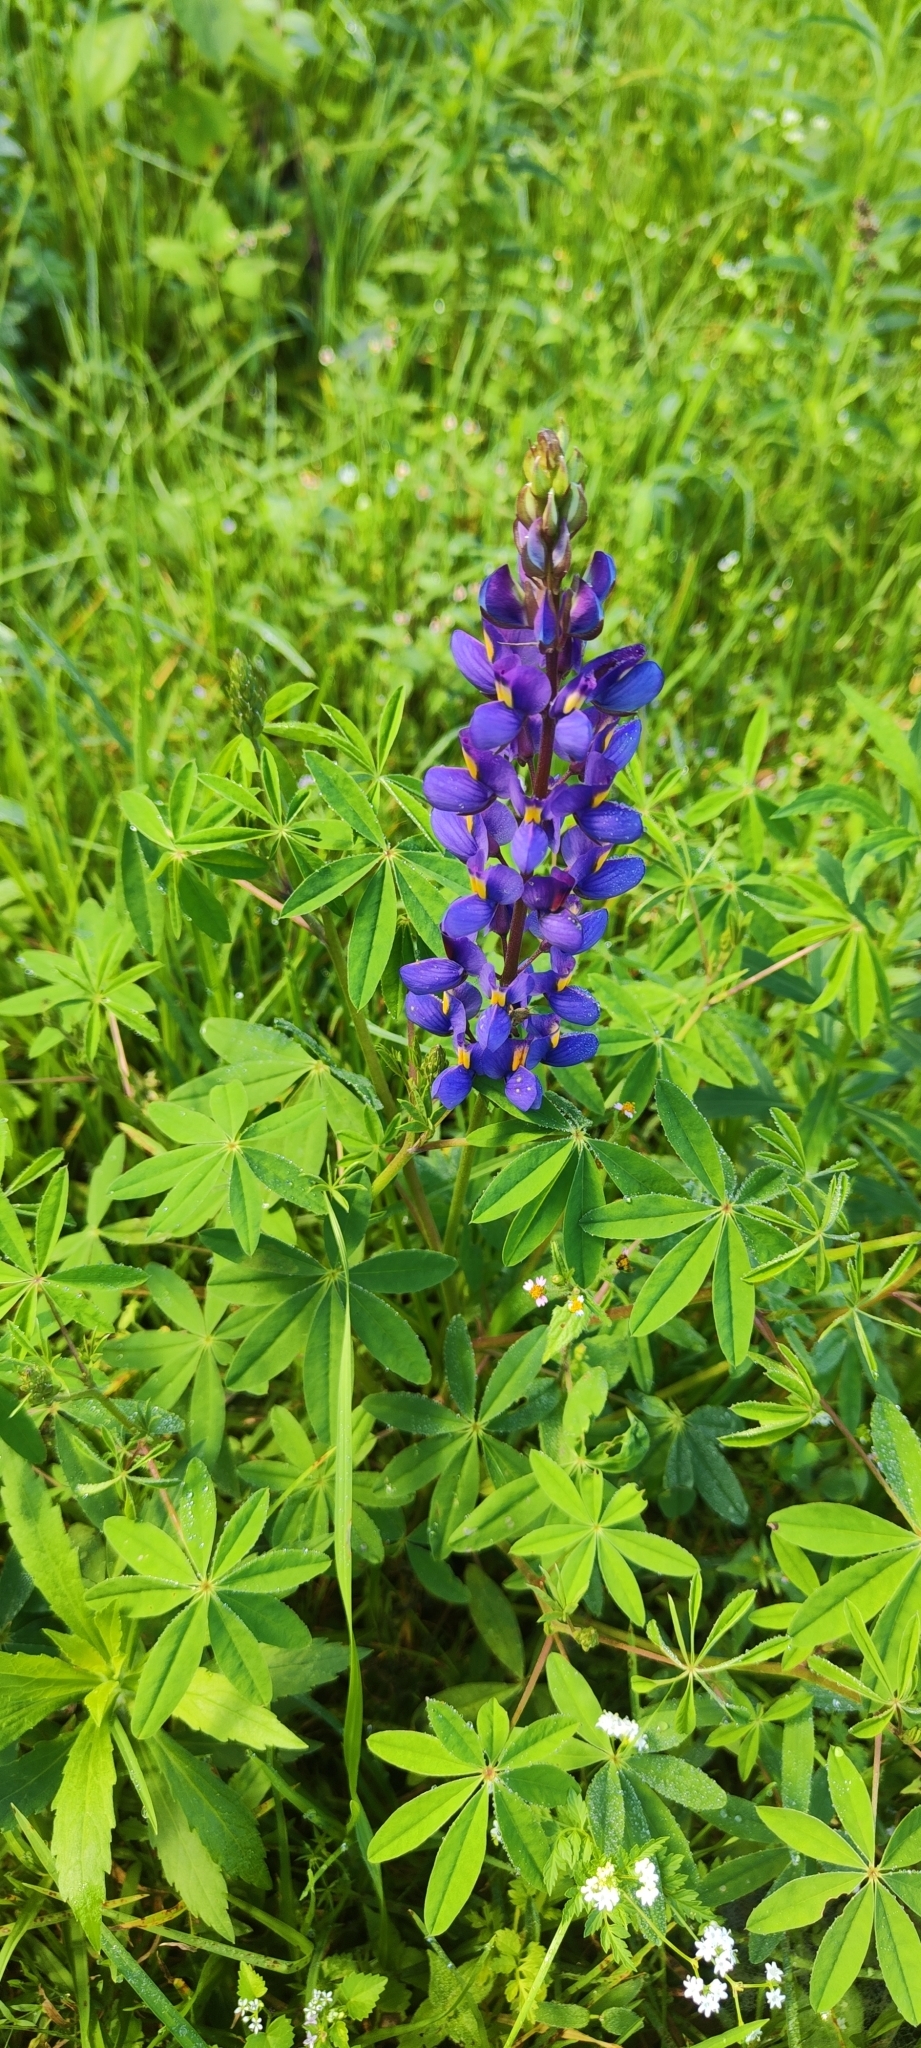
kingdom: Plantae
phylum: Tracheophyta
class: Magnoliopsida
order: Fabales
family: Fabaceae
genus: Lupinus
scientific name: Lupinus mutabilis
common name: South american lupin
